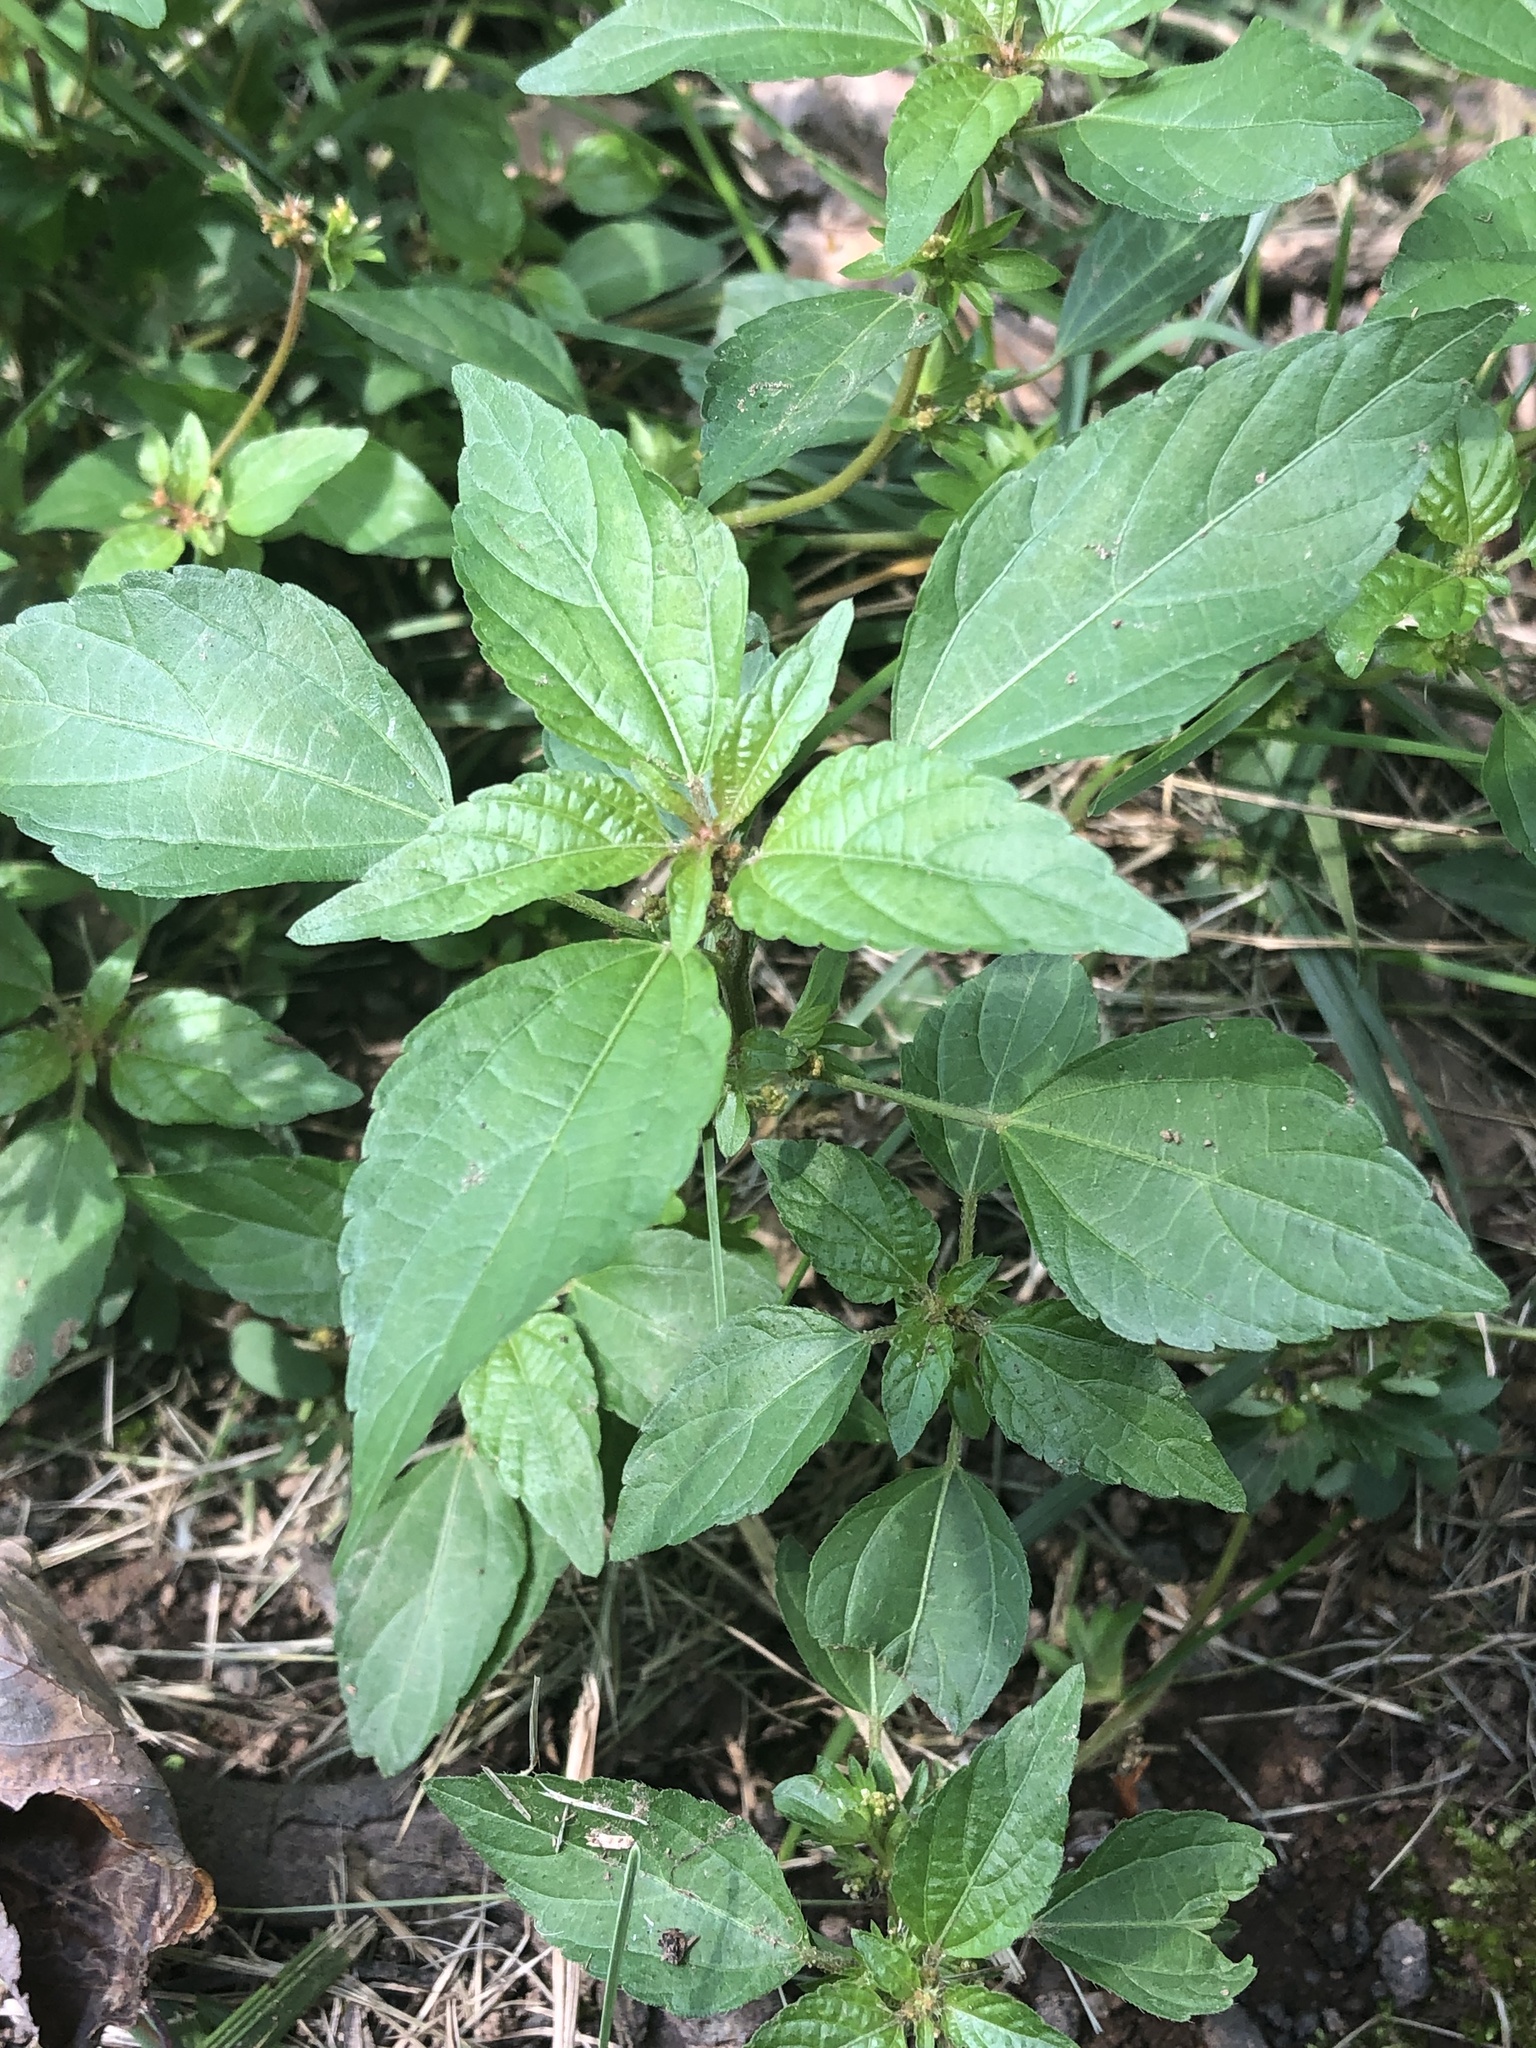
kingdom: Plantae
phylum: Tracheophyta
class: Magnoliopsida
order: Malpighiales
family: Euphorbiaceae
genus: Acalypha
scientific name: Acalypha rhomboidea
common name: Rhombic copperleaf
